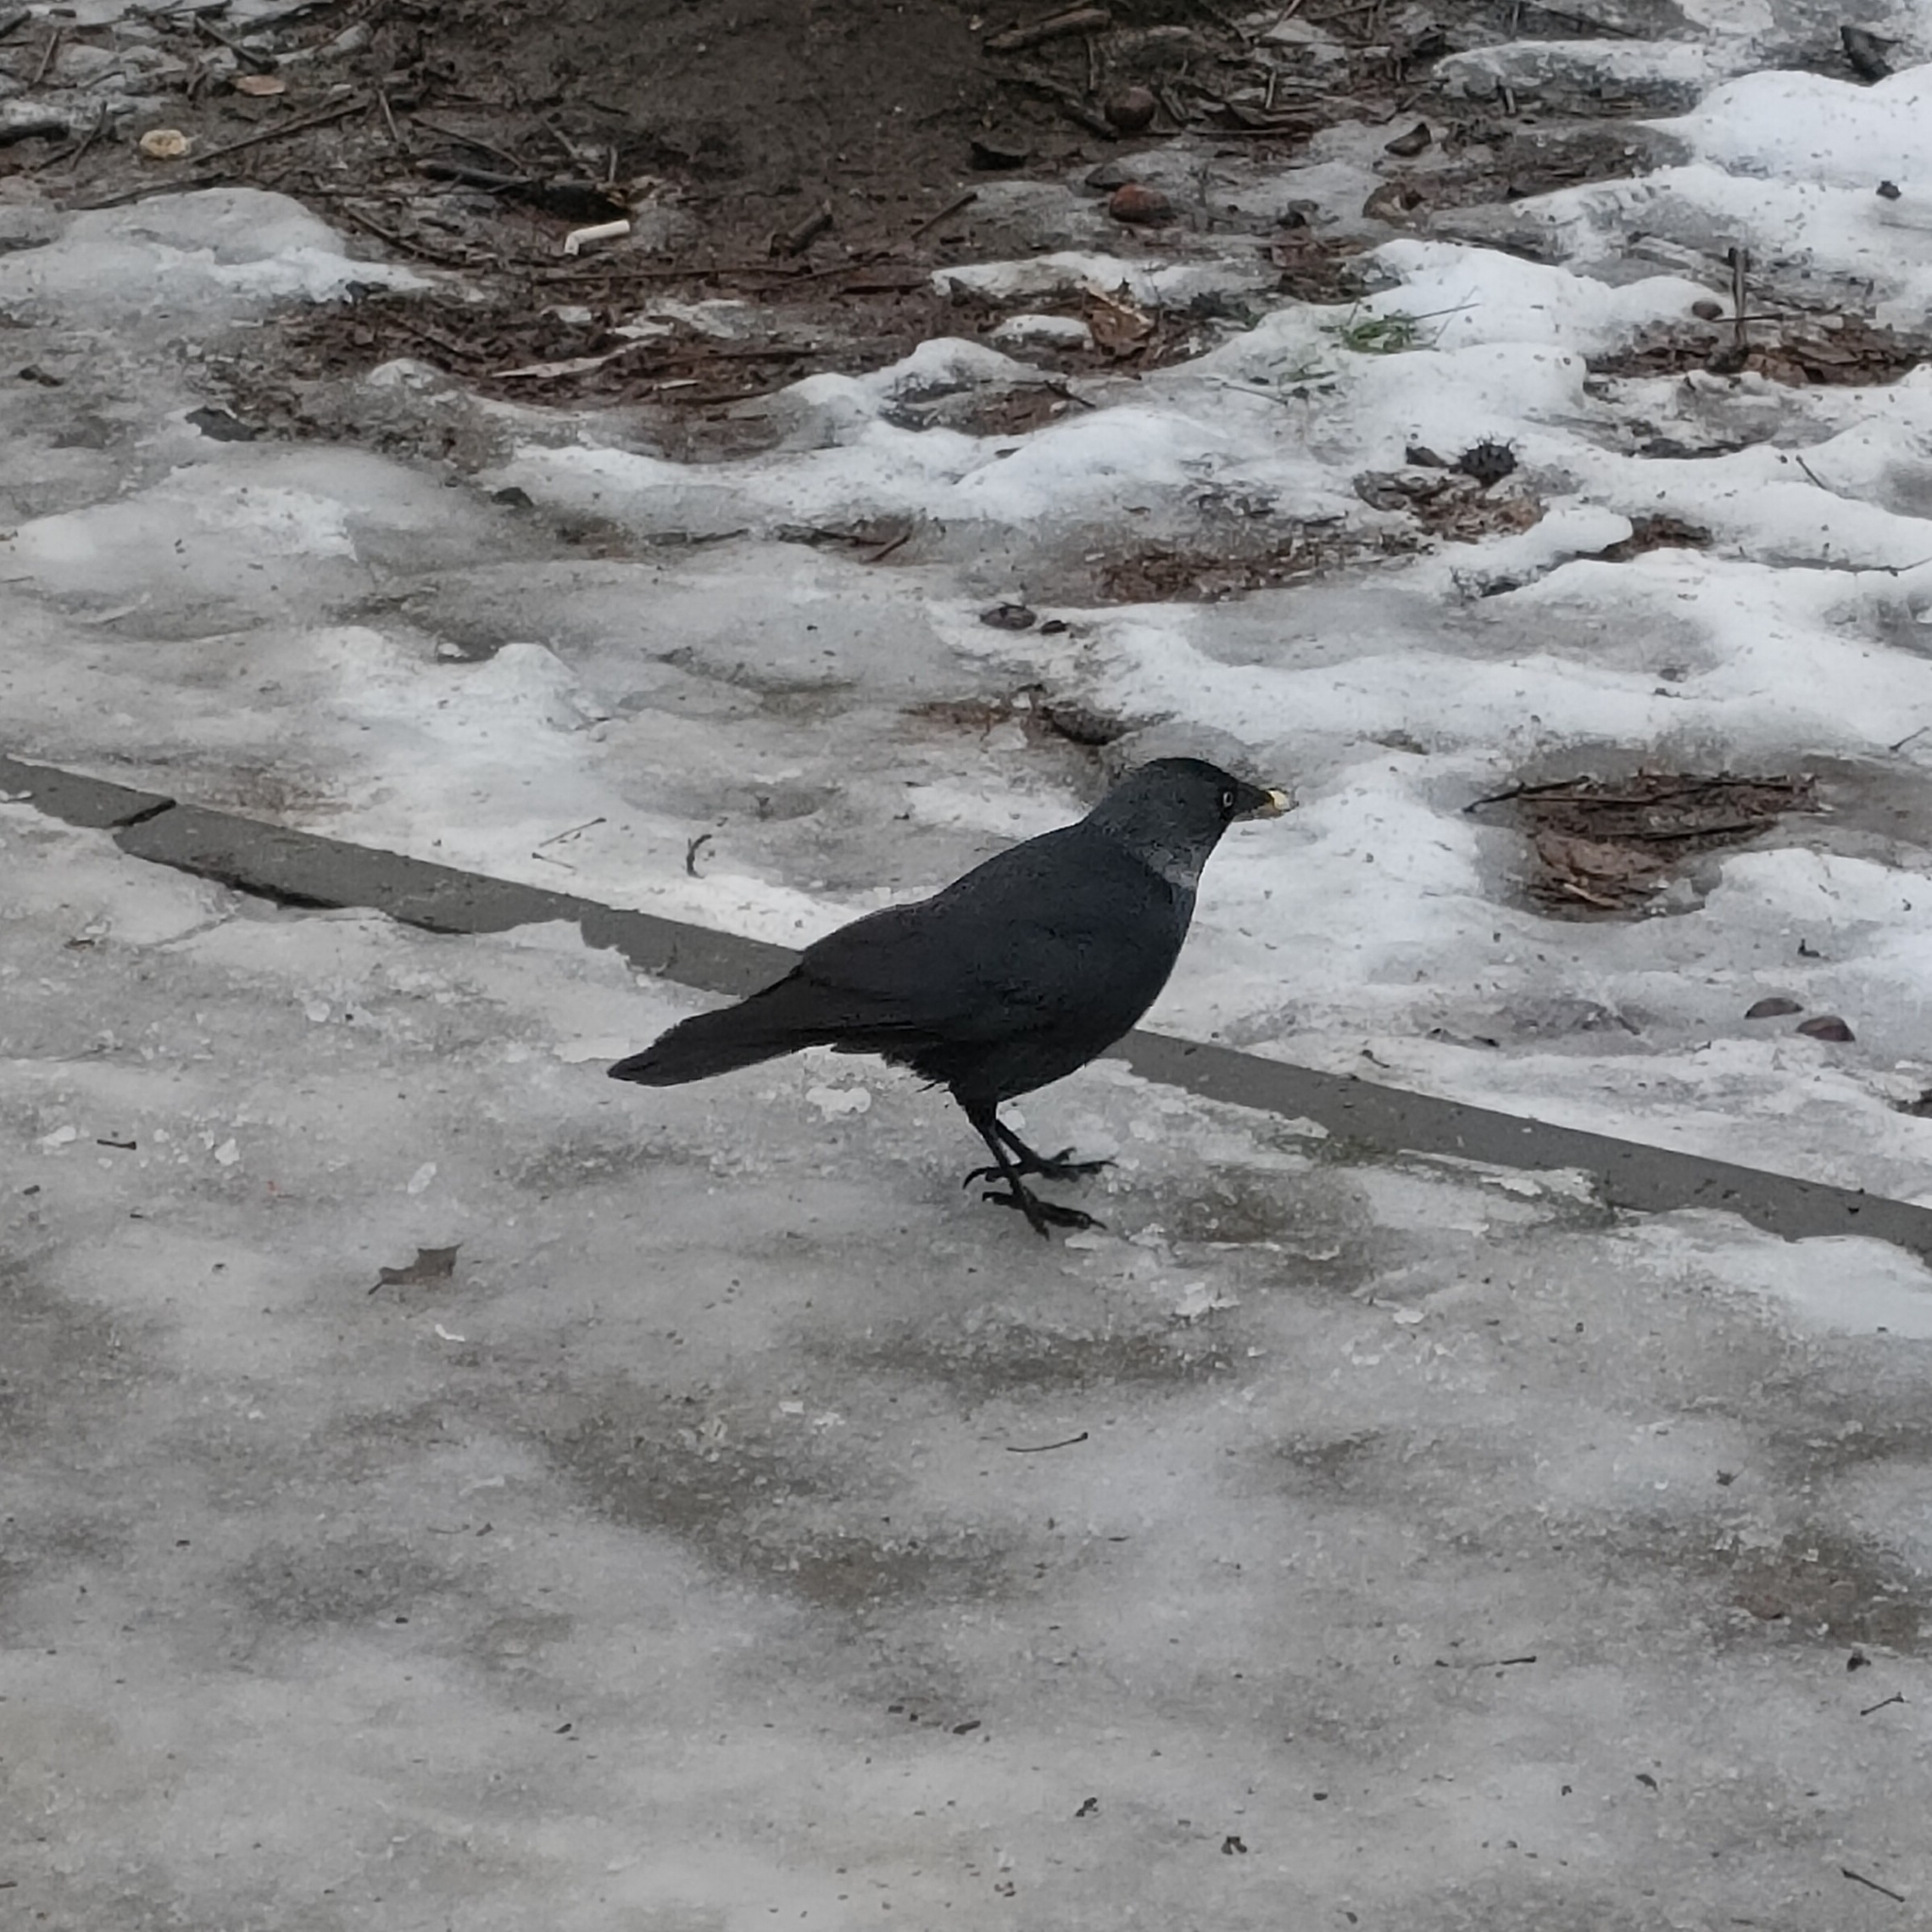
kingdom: Animalia
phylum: Chordata
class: Aves
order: Passeriformes
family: Corvidae
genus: Coloeus
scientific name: Coloeus monedula
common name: Western jackdaw
